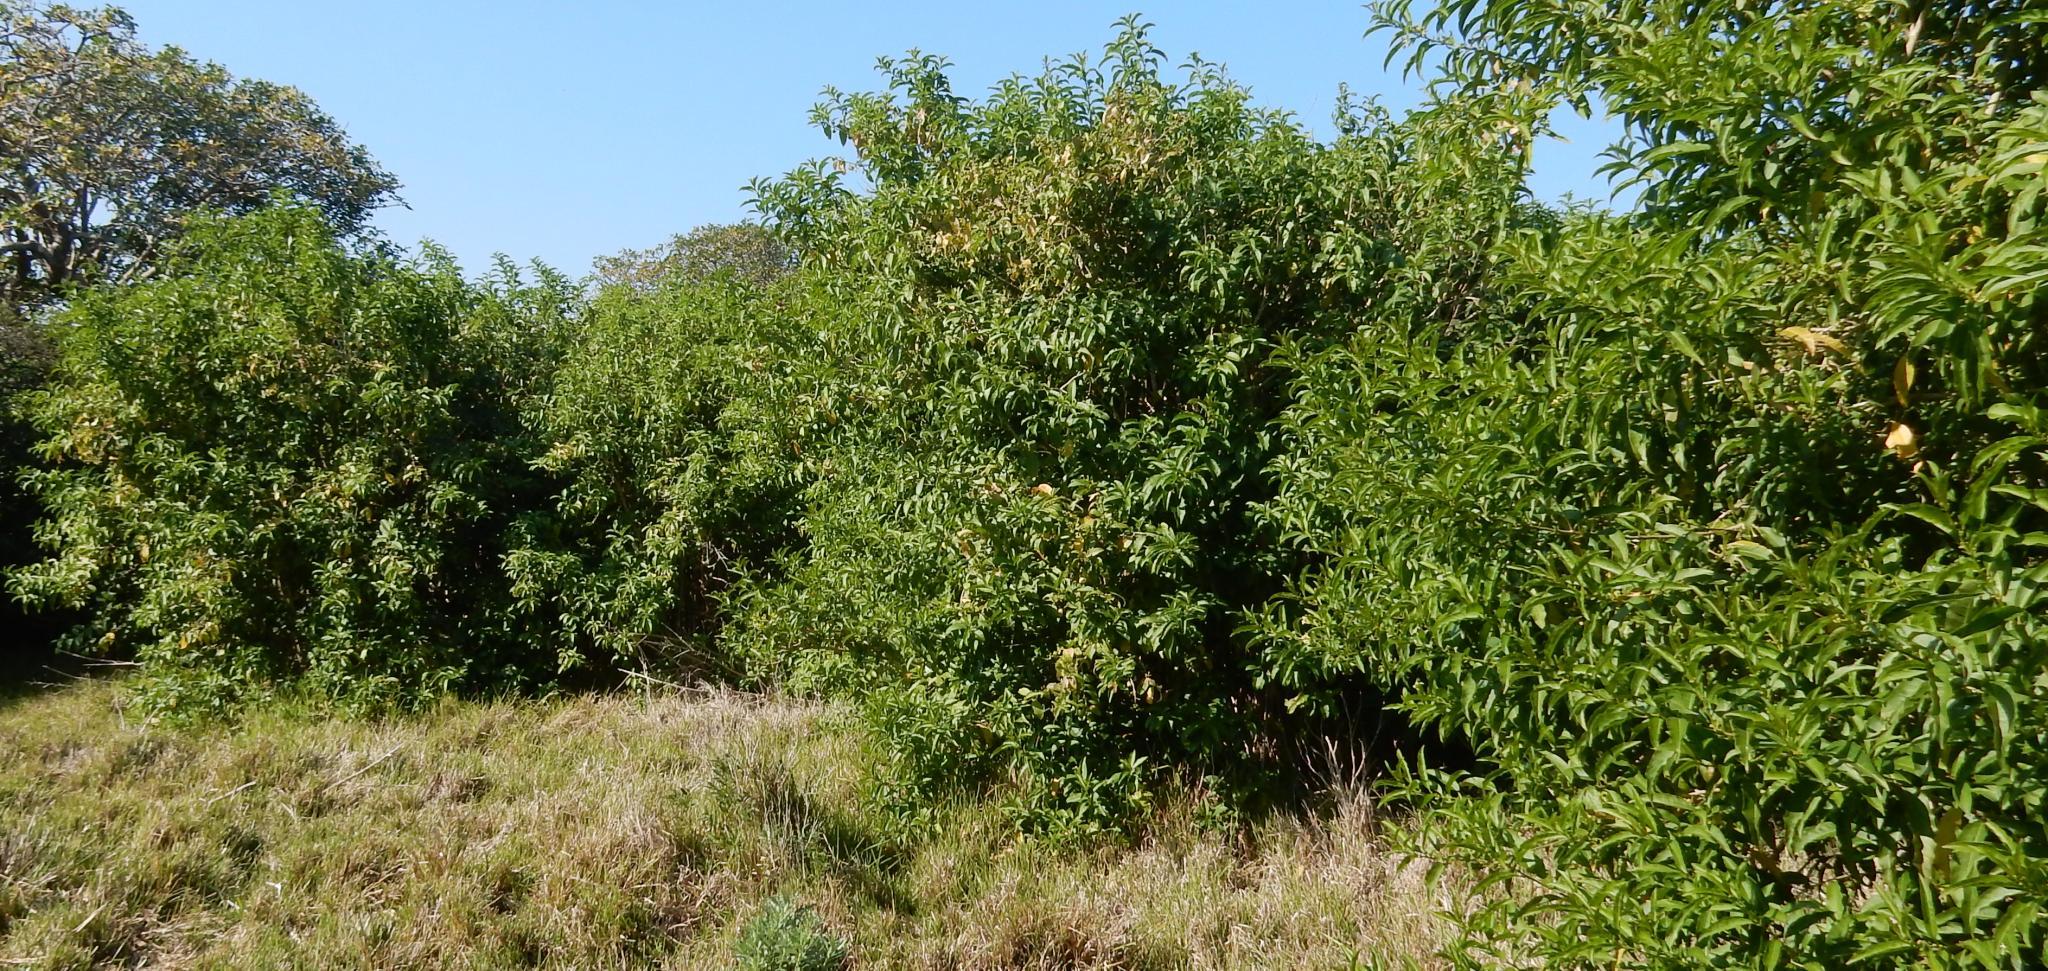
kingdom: Plantae
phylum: Tracheophyta
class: Magnoliopsida
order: Solanales
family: Solanaceae
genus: Cestrum
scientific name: Cestrum laevigatum
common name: Inkberry
